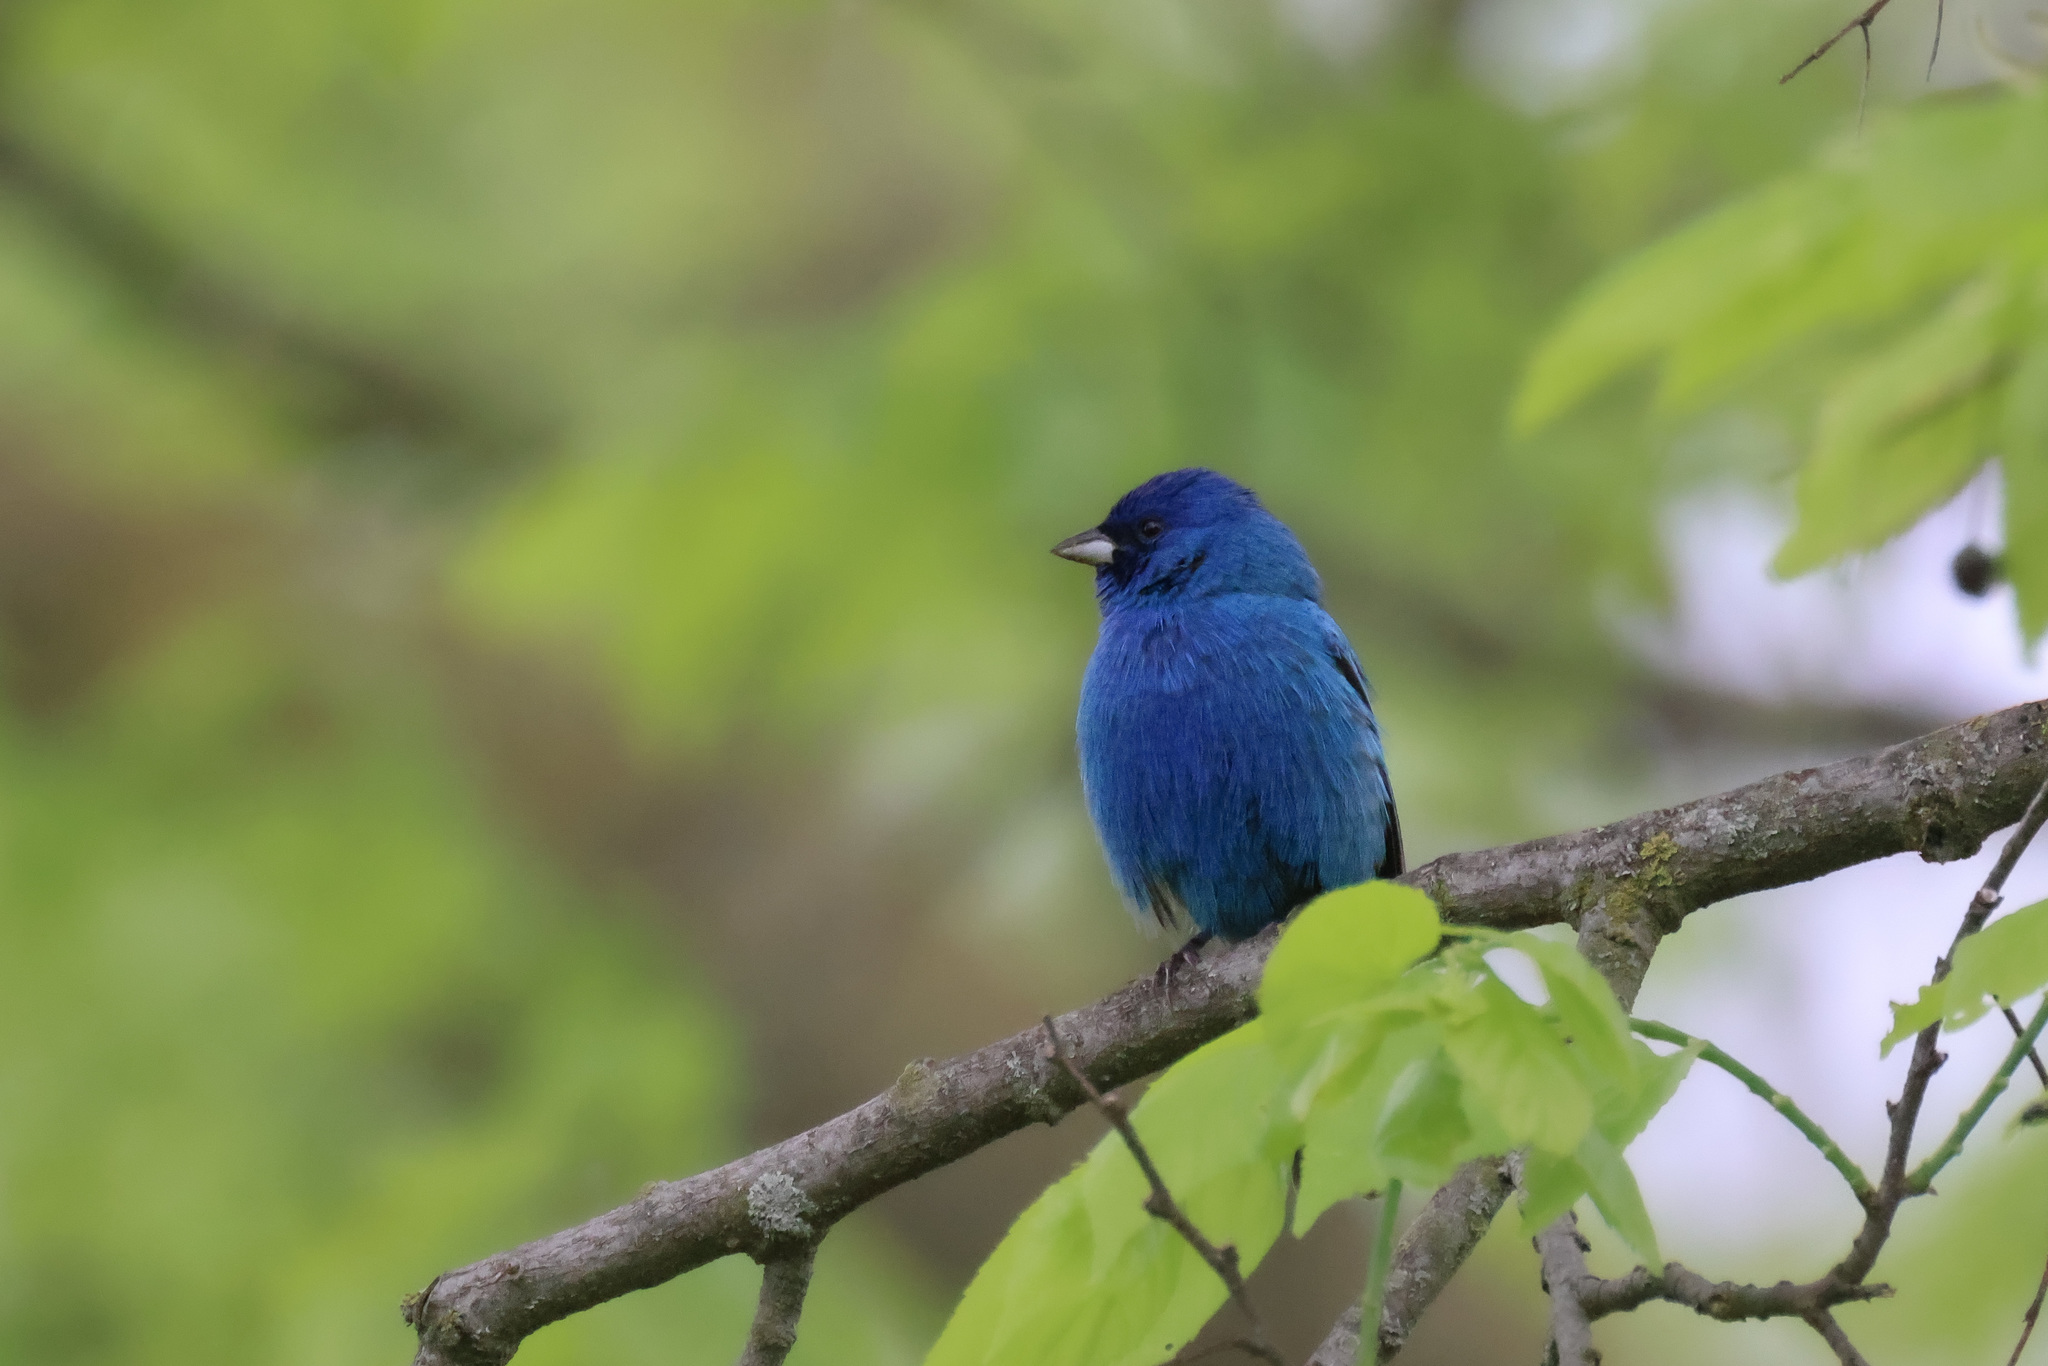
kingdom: Animalia
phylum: Chordata
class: Aves
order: Passeriformes
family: Cardinalidae
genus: Passerina
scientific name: Passerina cyanea
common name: Indigo bunting
